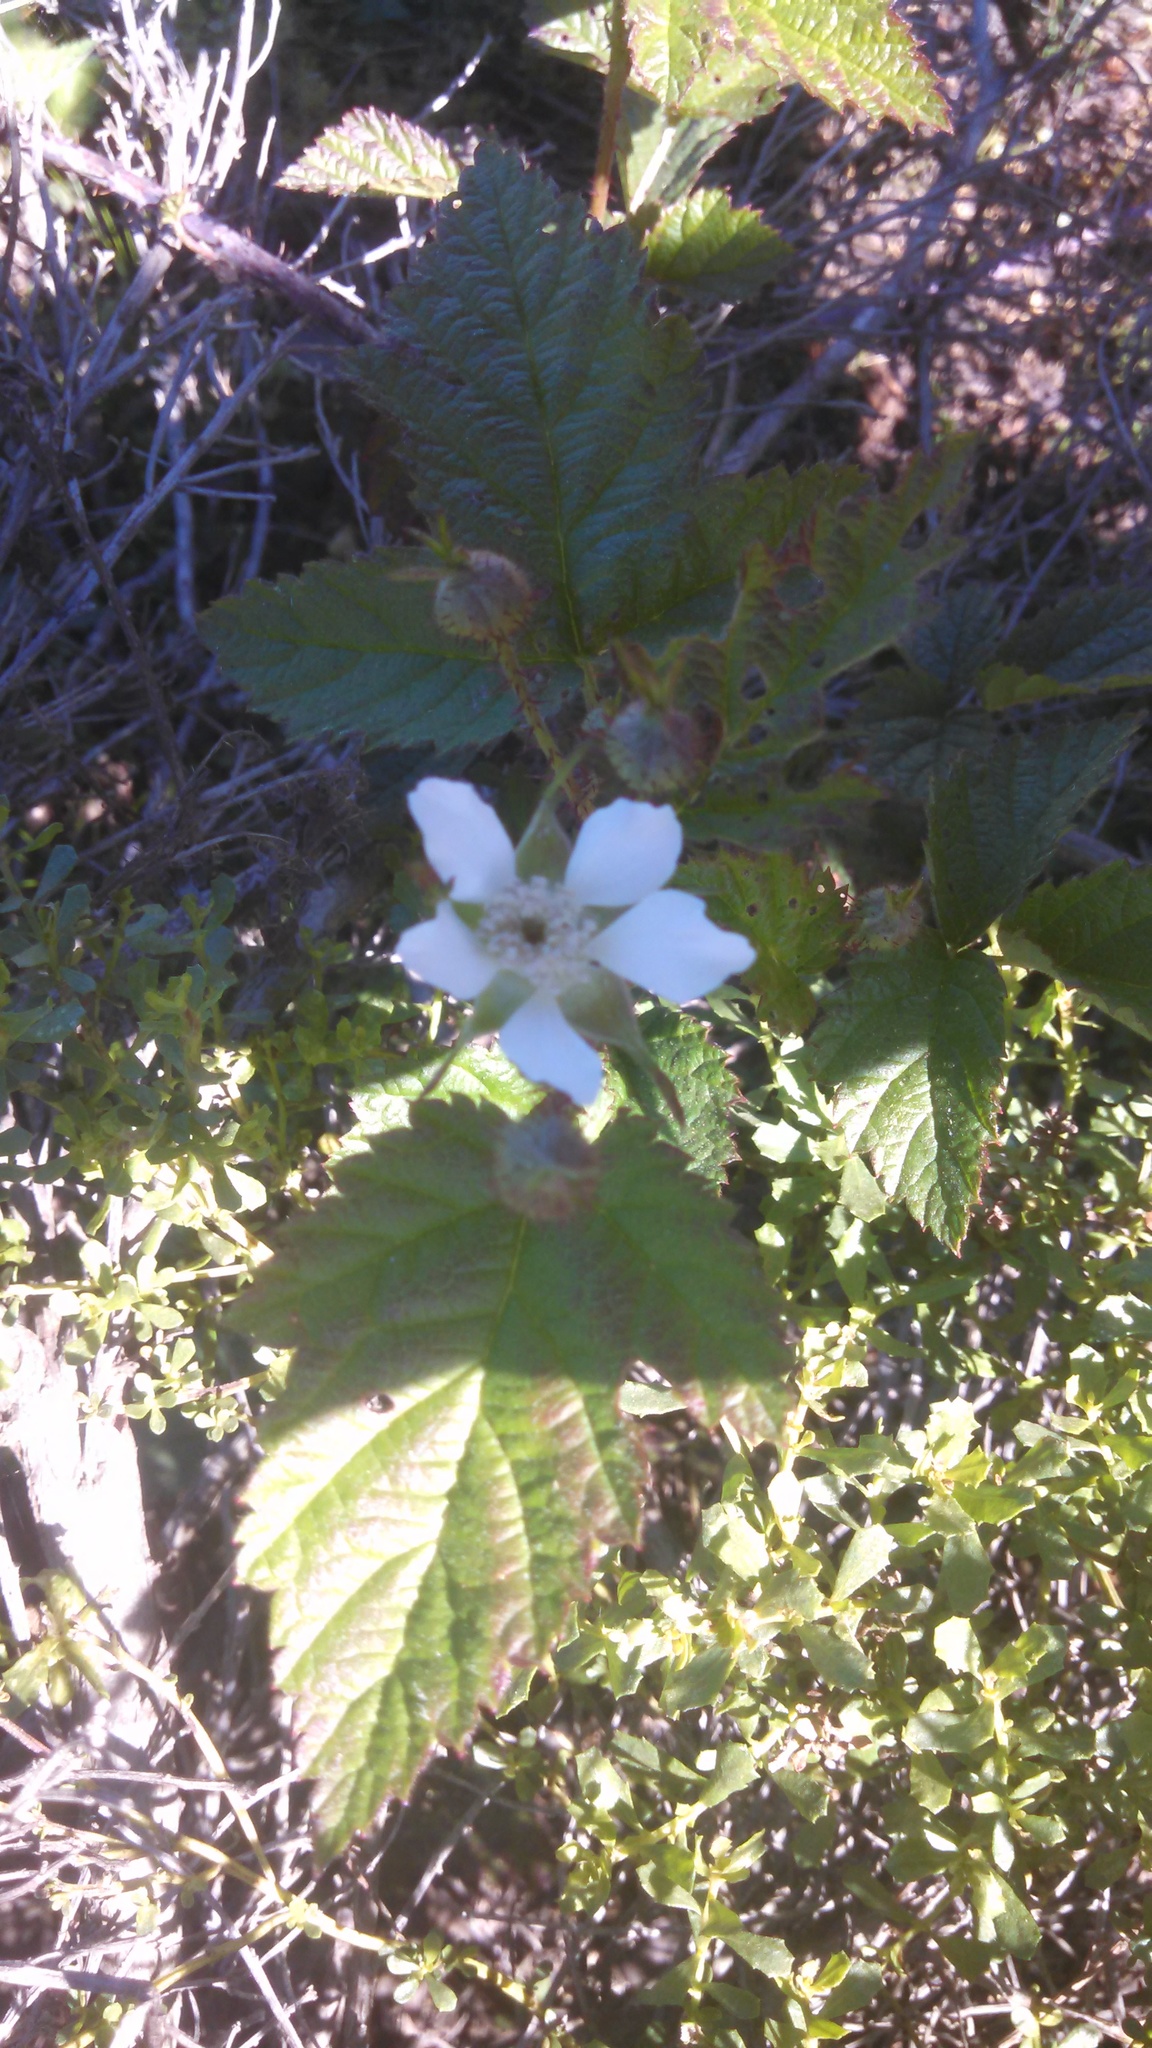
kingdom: Plantae
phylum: Tracheophyta
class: Magnoliopsida
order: Rosales
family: Rosaceae
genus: Rubus
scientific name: Rubus ursinus
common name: Pacific blackberry
